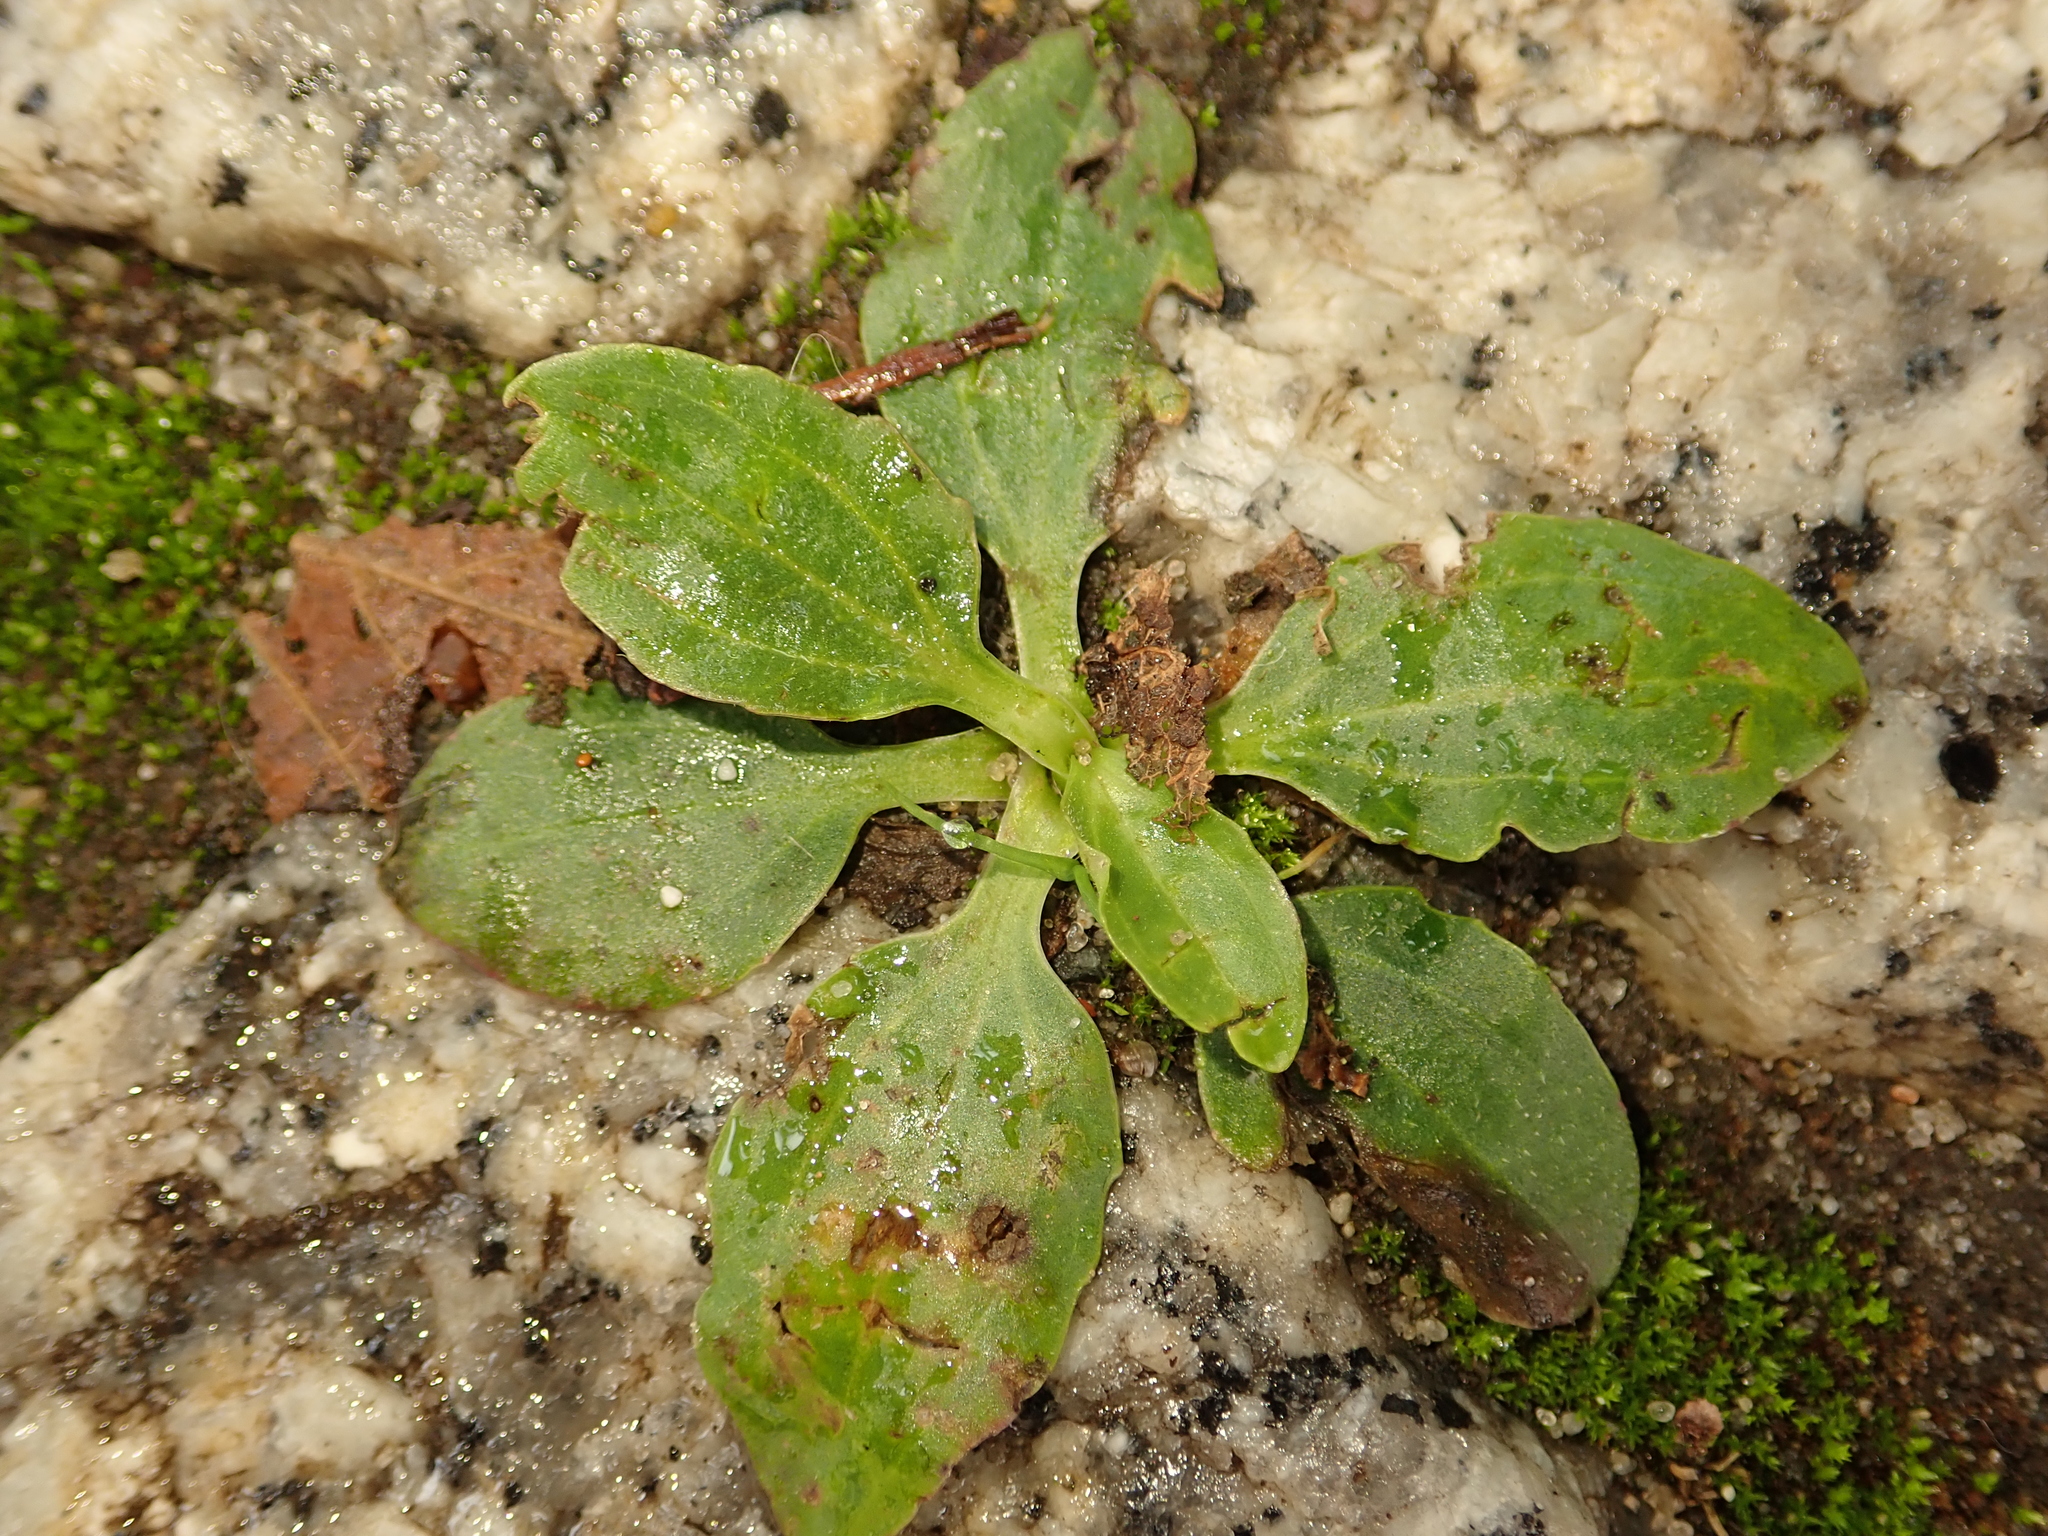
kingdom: Plantae
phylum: Tracheophyta
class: Magnoliopsida
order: Lamiales
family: Plantaginaceae
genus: Plantago
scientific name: Plantago major
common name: Common plantain
